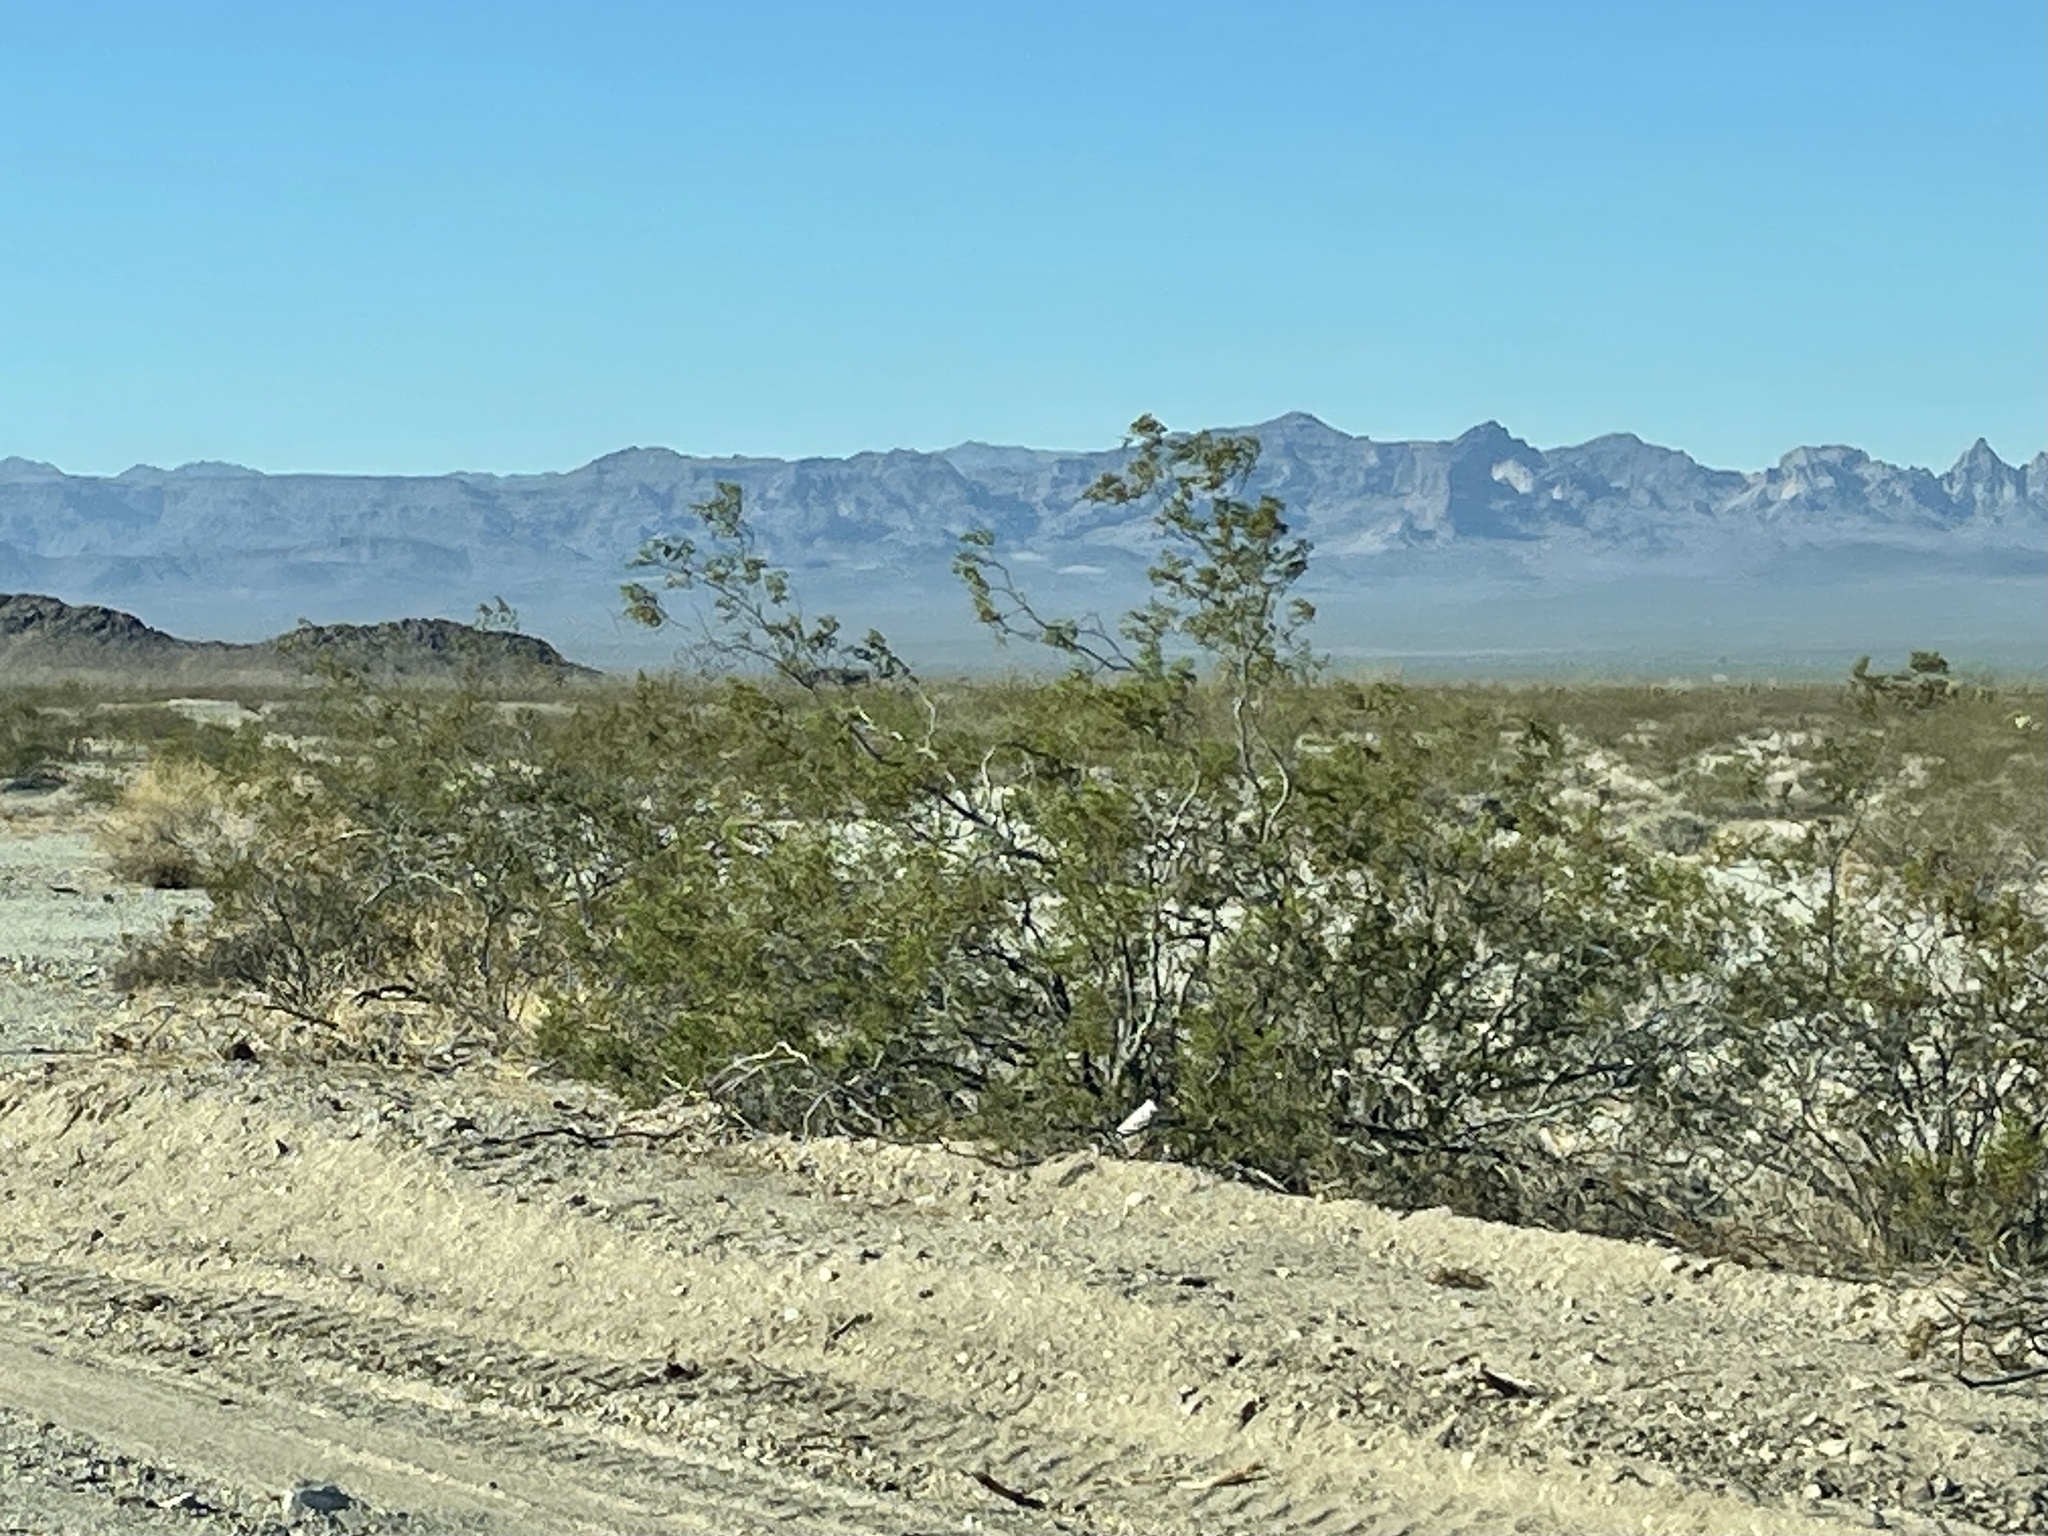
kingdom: Plantae
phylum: Tracheophyta
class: Magnoliopsida
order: Zygophyllales
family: Zygophyllaceae
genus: Larrea
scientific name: Larrea tridentata
